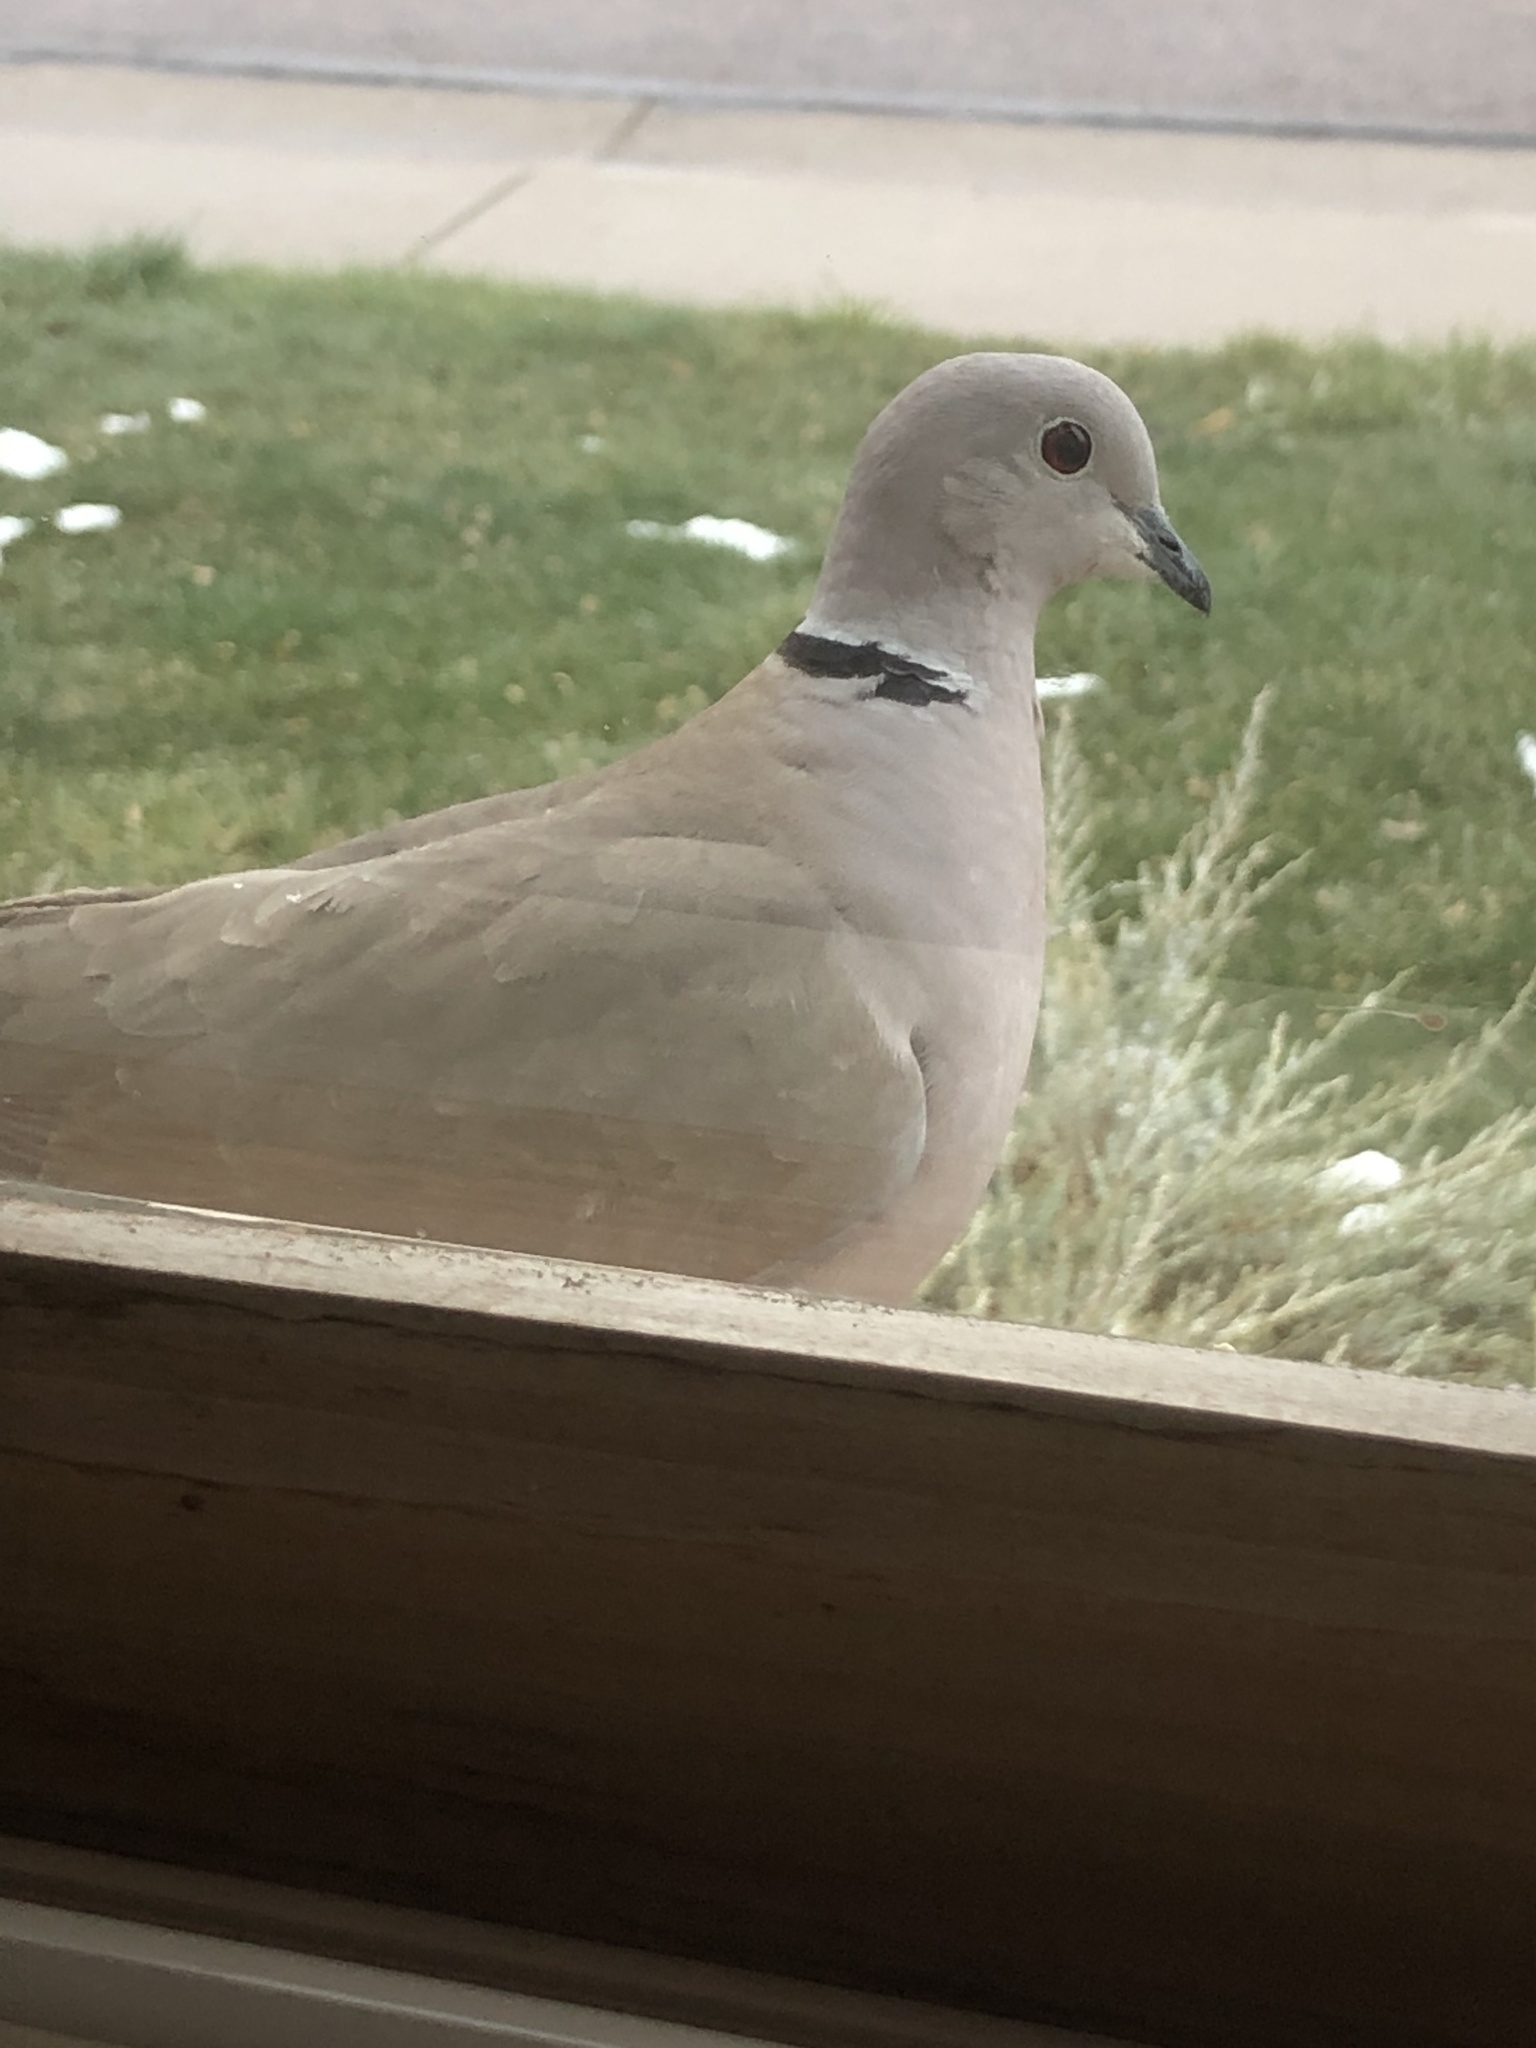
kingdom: Animalia
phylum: Chordata
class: Aves
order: Columbiformes
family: Columbidae
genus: Streptopelia
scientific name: Streptopelia decaocto
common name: Eurasian collared dove
